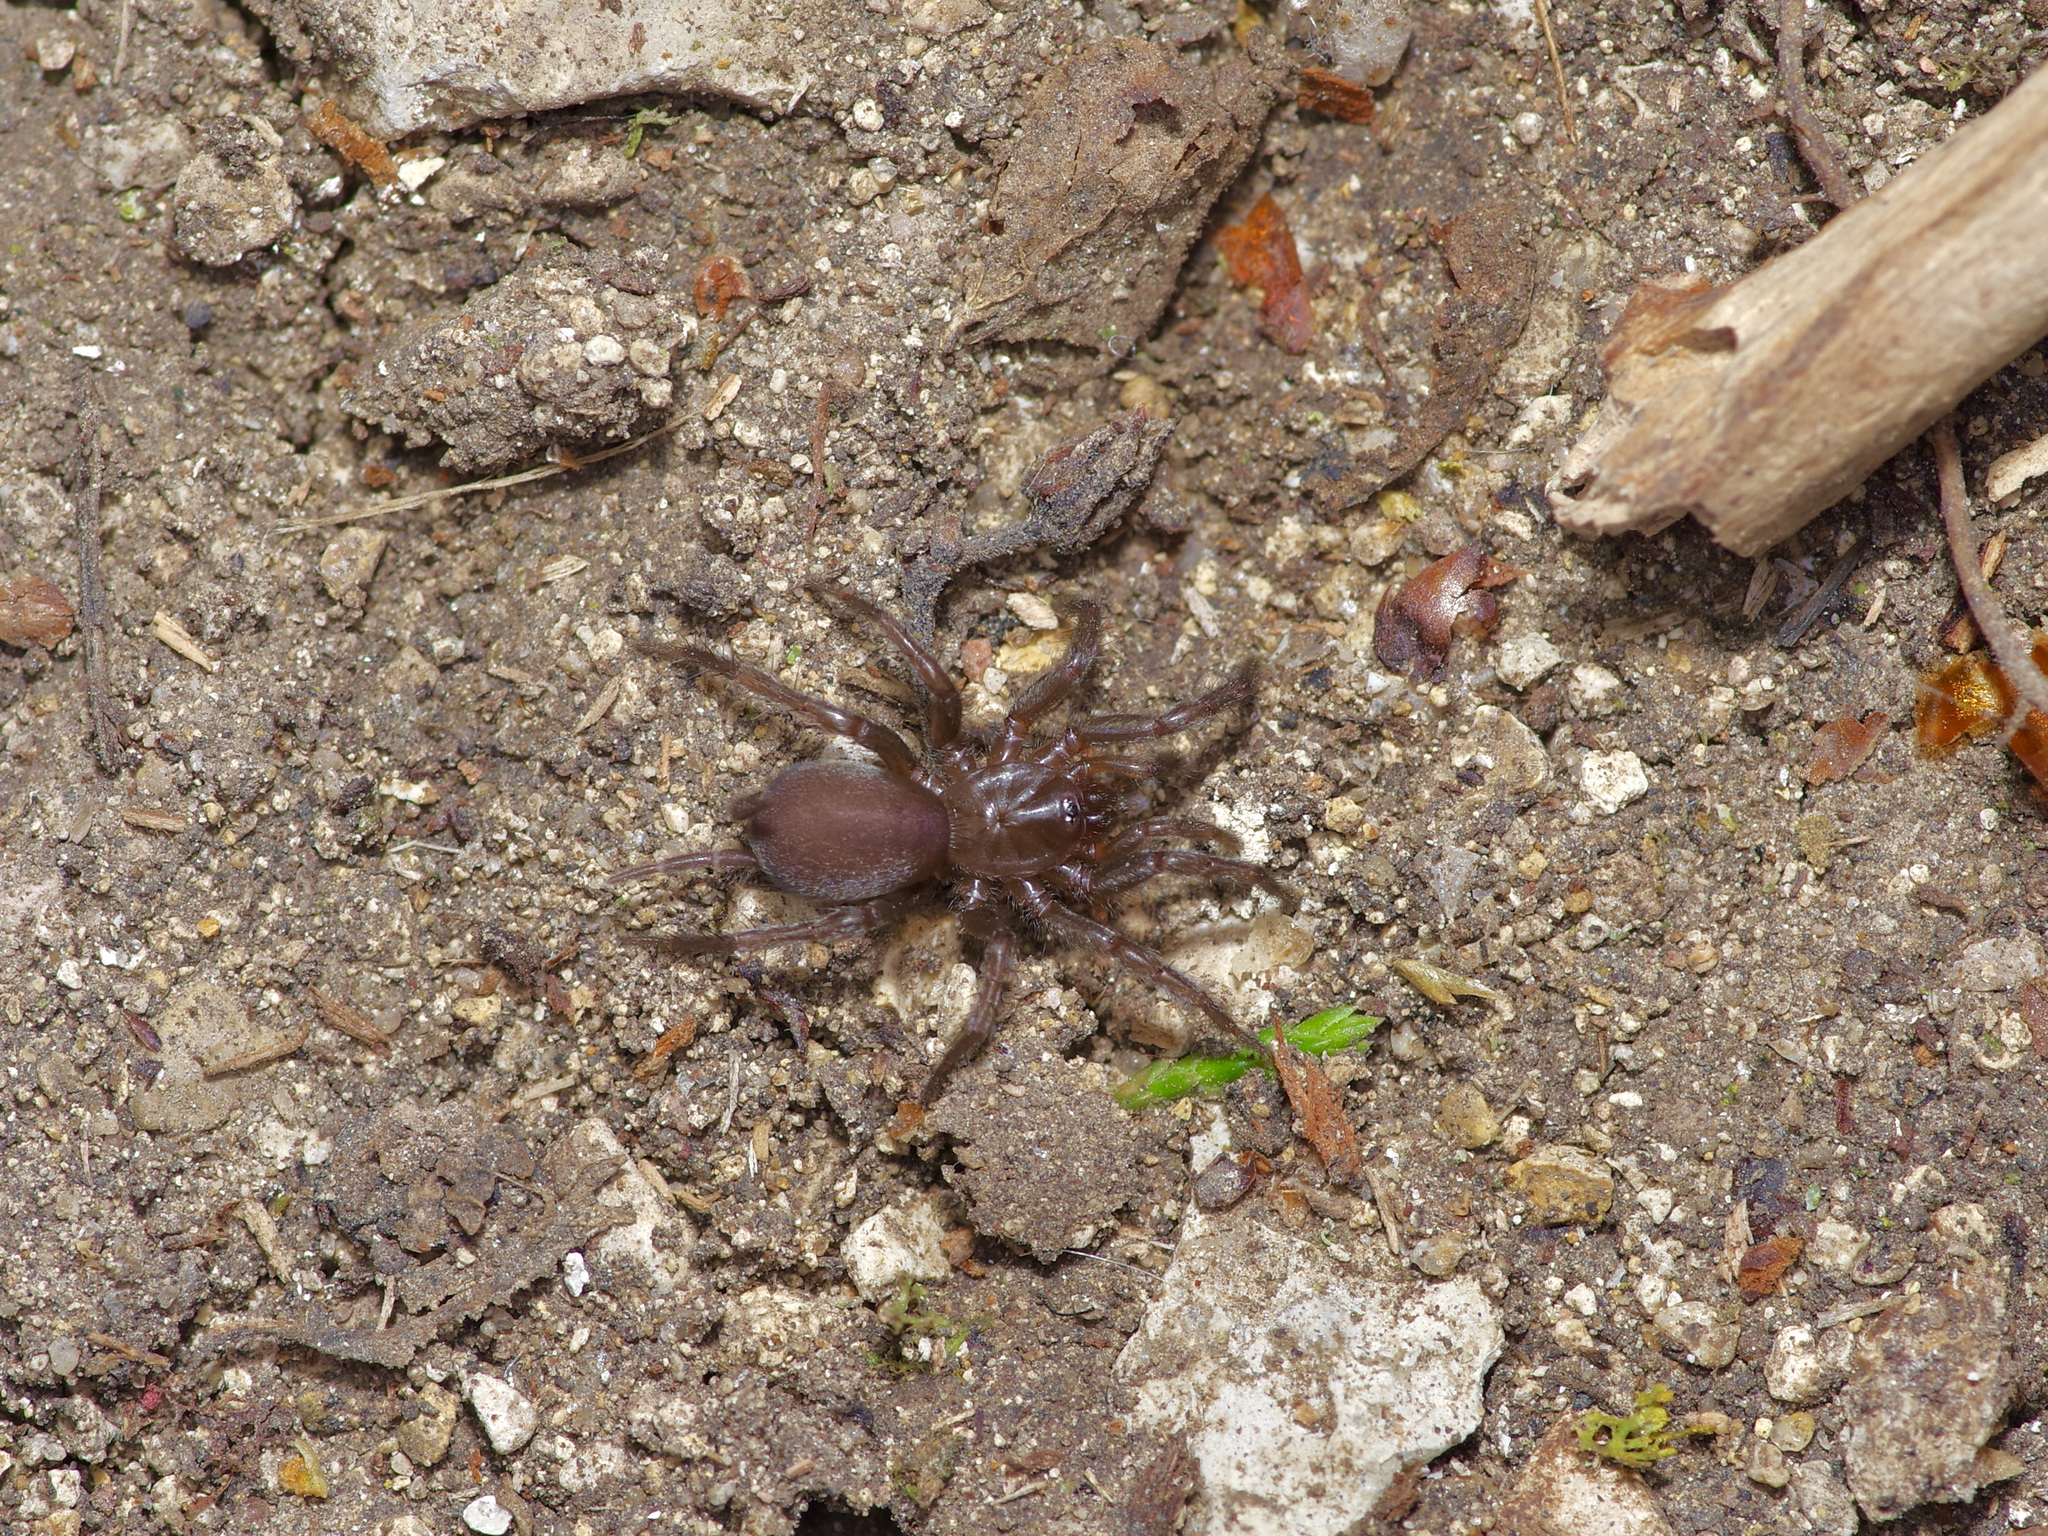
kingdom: Animalia
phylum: Arthropoda
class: Arachnida
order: Araneae
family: Euagridae
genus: Euagrus
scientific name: Euagrus chisoseus
